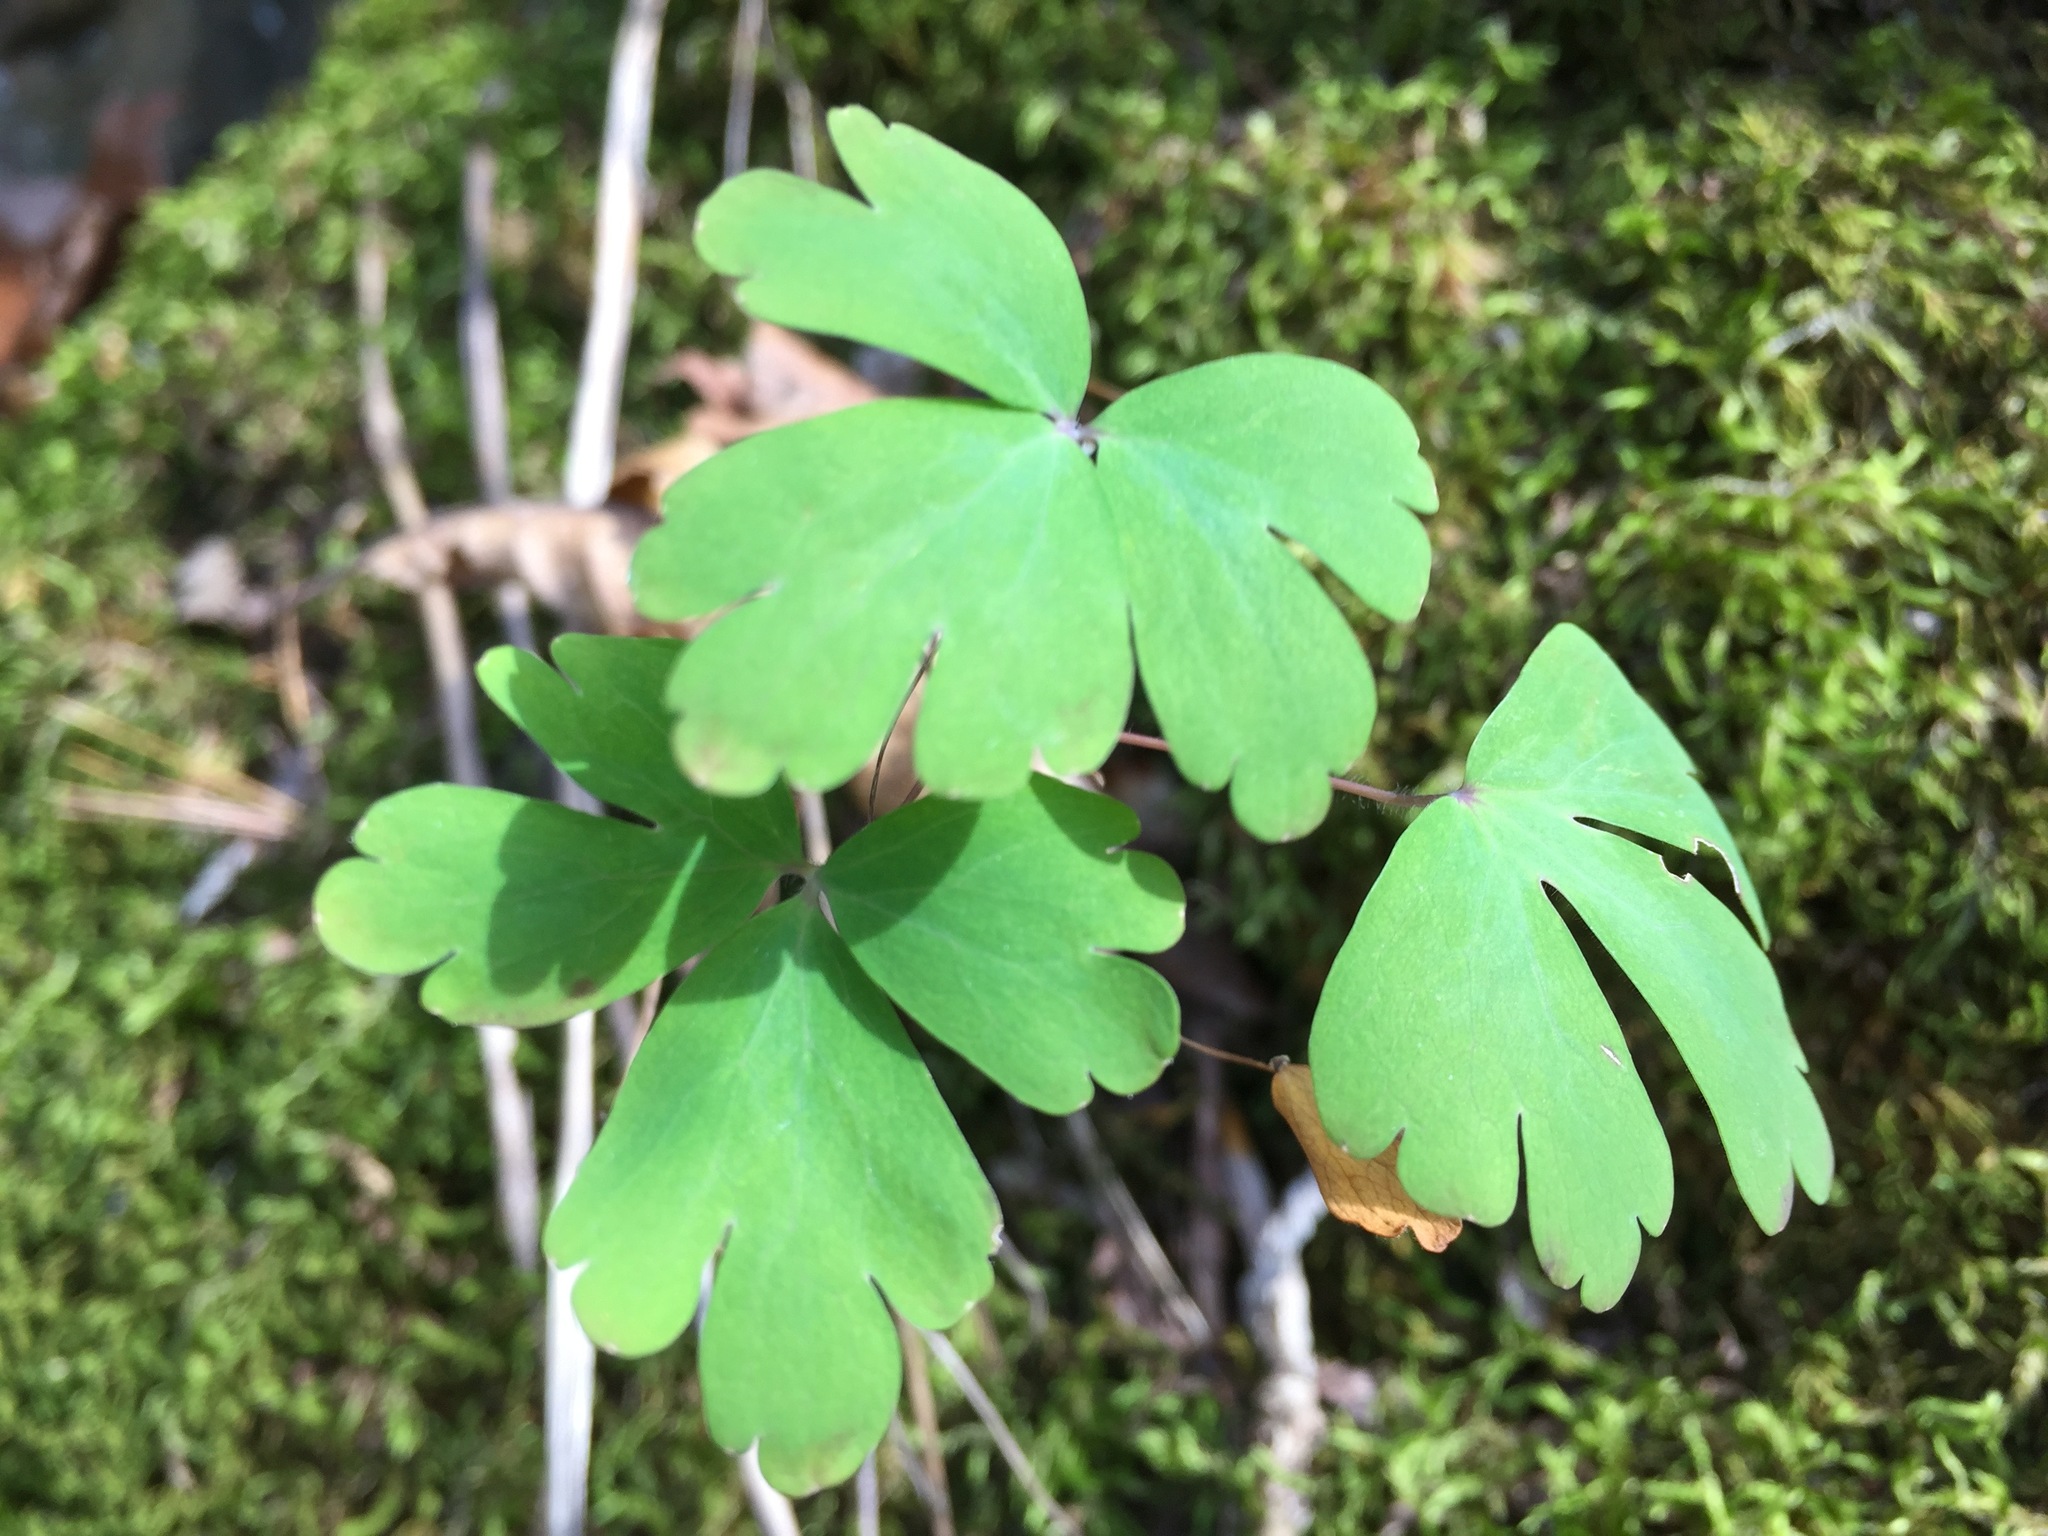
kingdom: Plantae
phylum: Tracheophyta
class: Magnoliopsida
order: Ranunculales
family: Ranunculaceae
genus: Aquilegia
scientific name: Aquilegia canadensis
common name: American columbine
